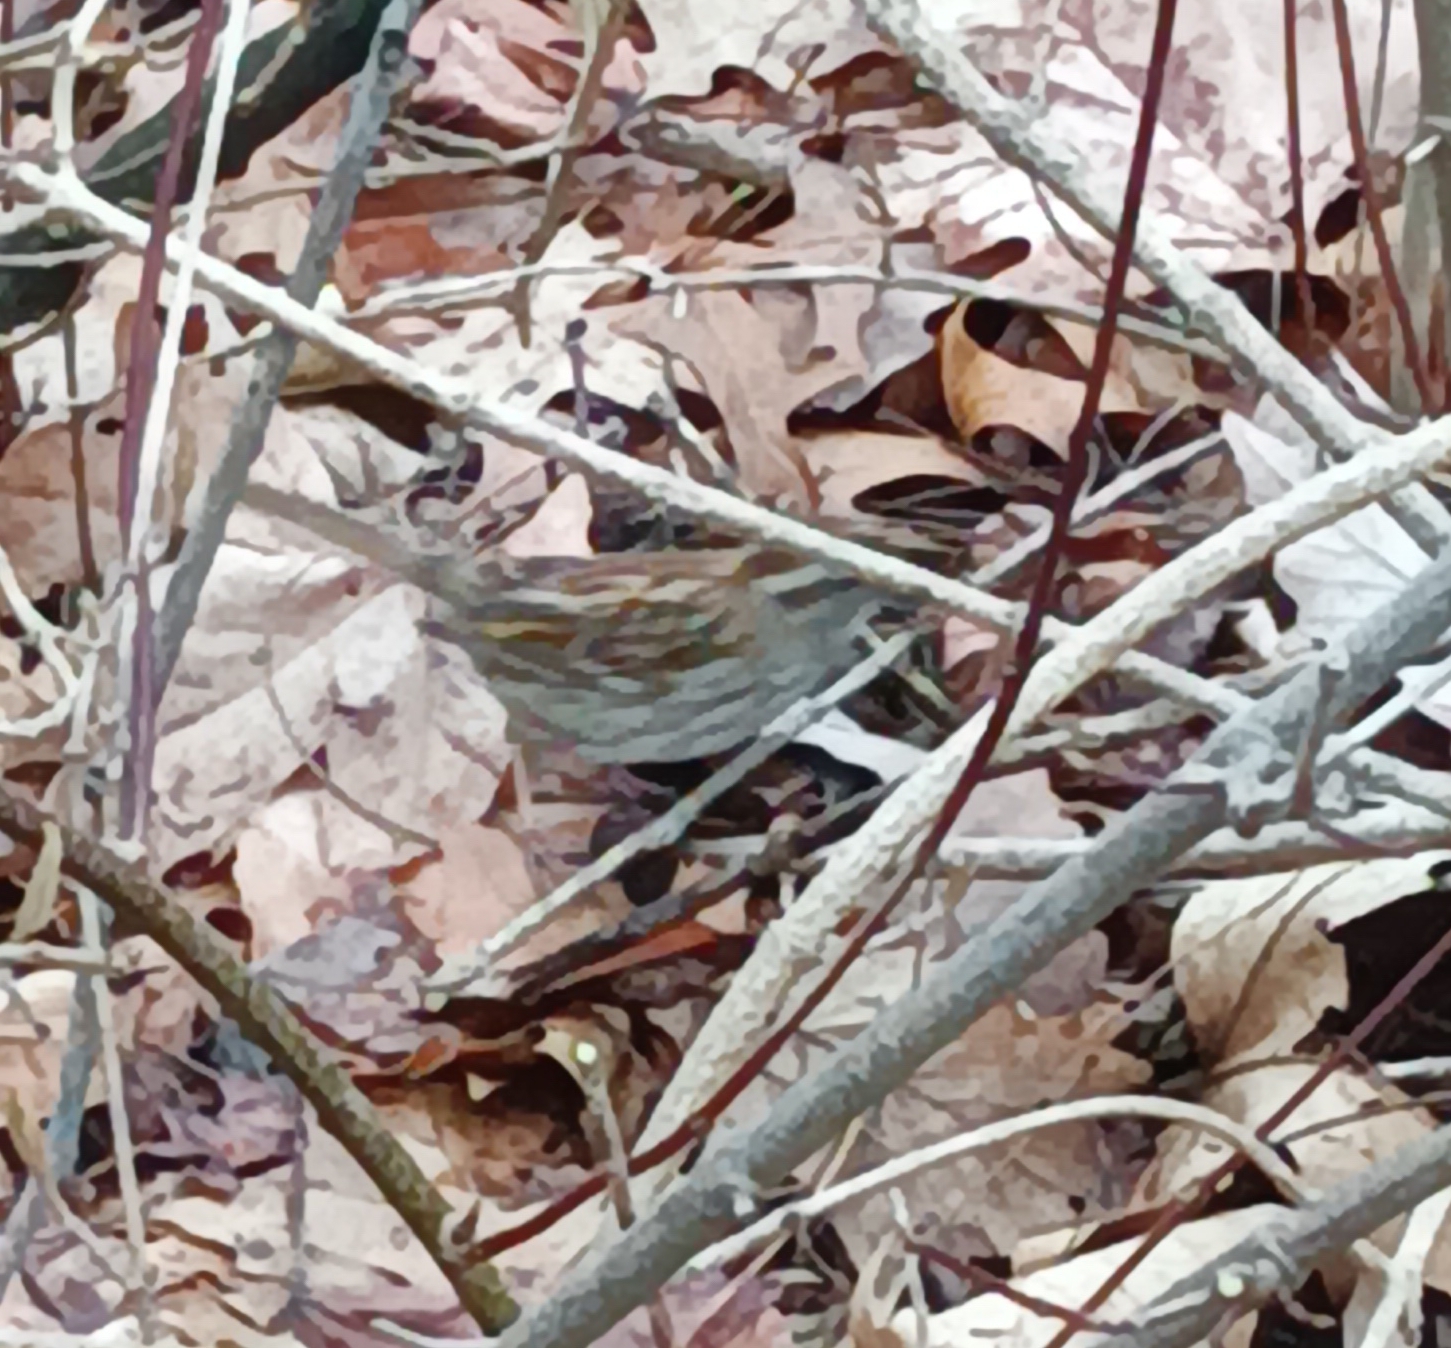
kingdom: Animalia
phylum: Chordata
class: Aves
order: Passeriformes
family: Passerellidae
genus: Zonotrichia
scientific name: Zonotrichia albicollis
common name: White-throated sparrow
